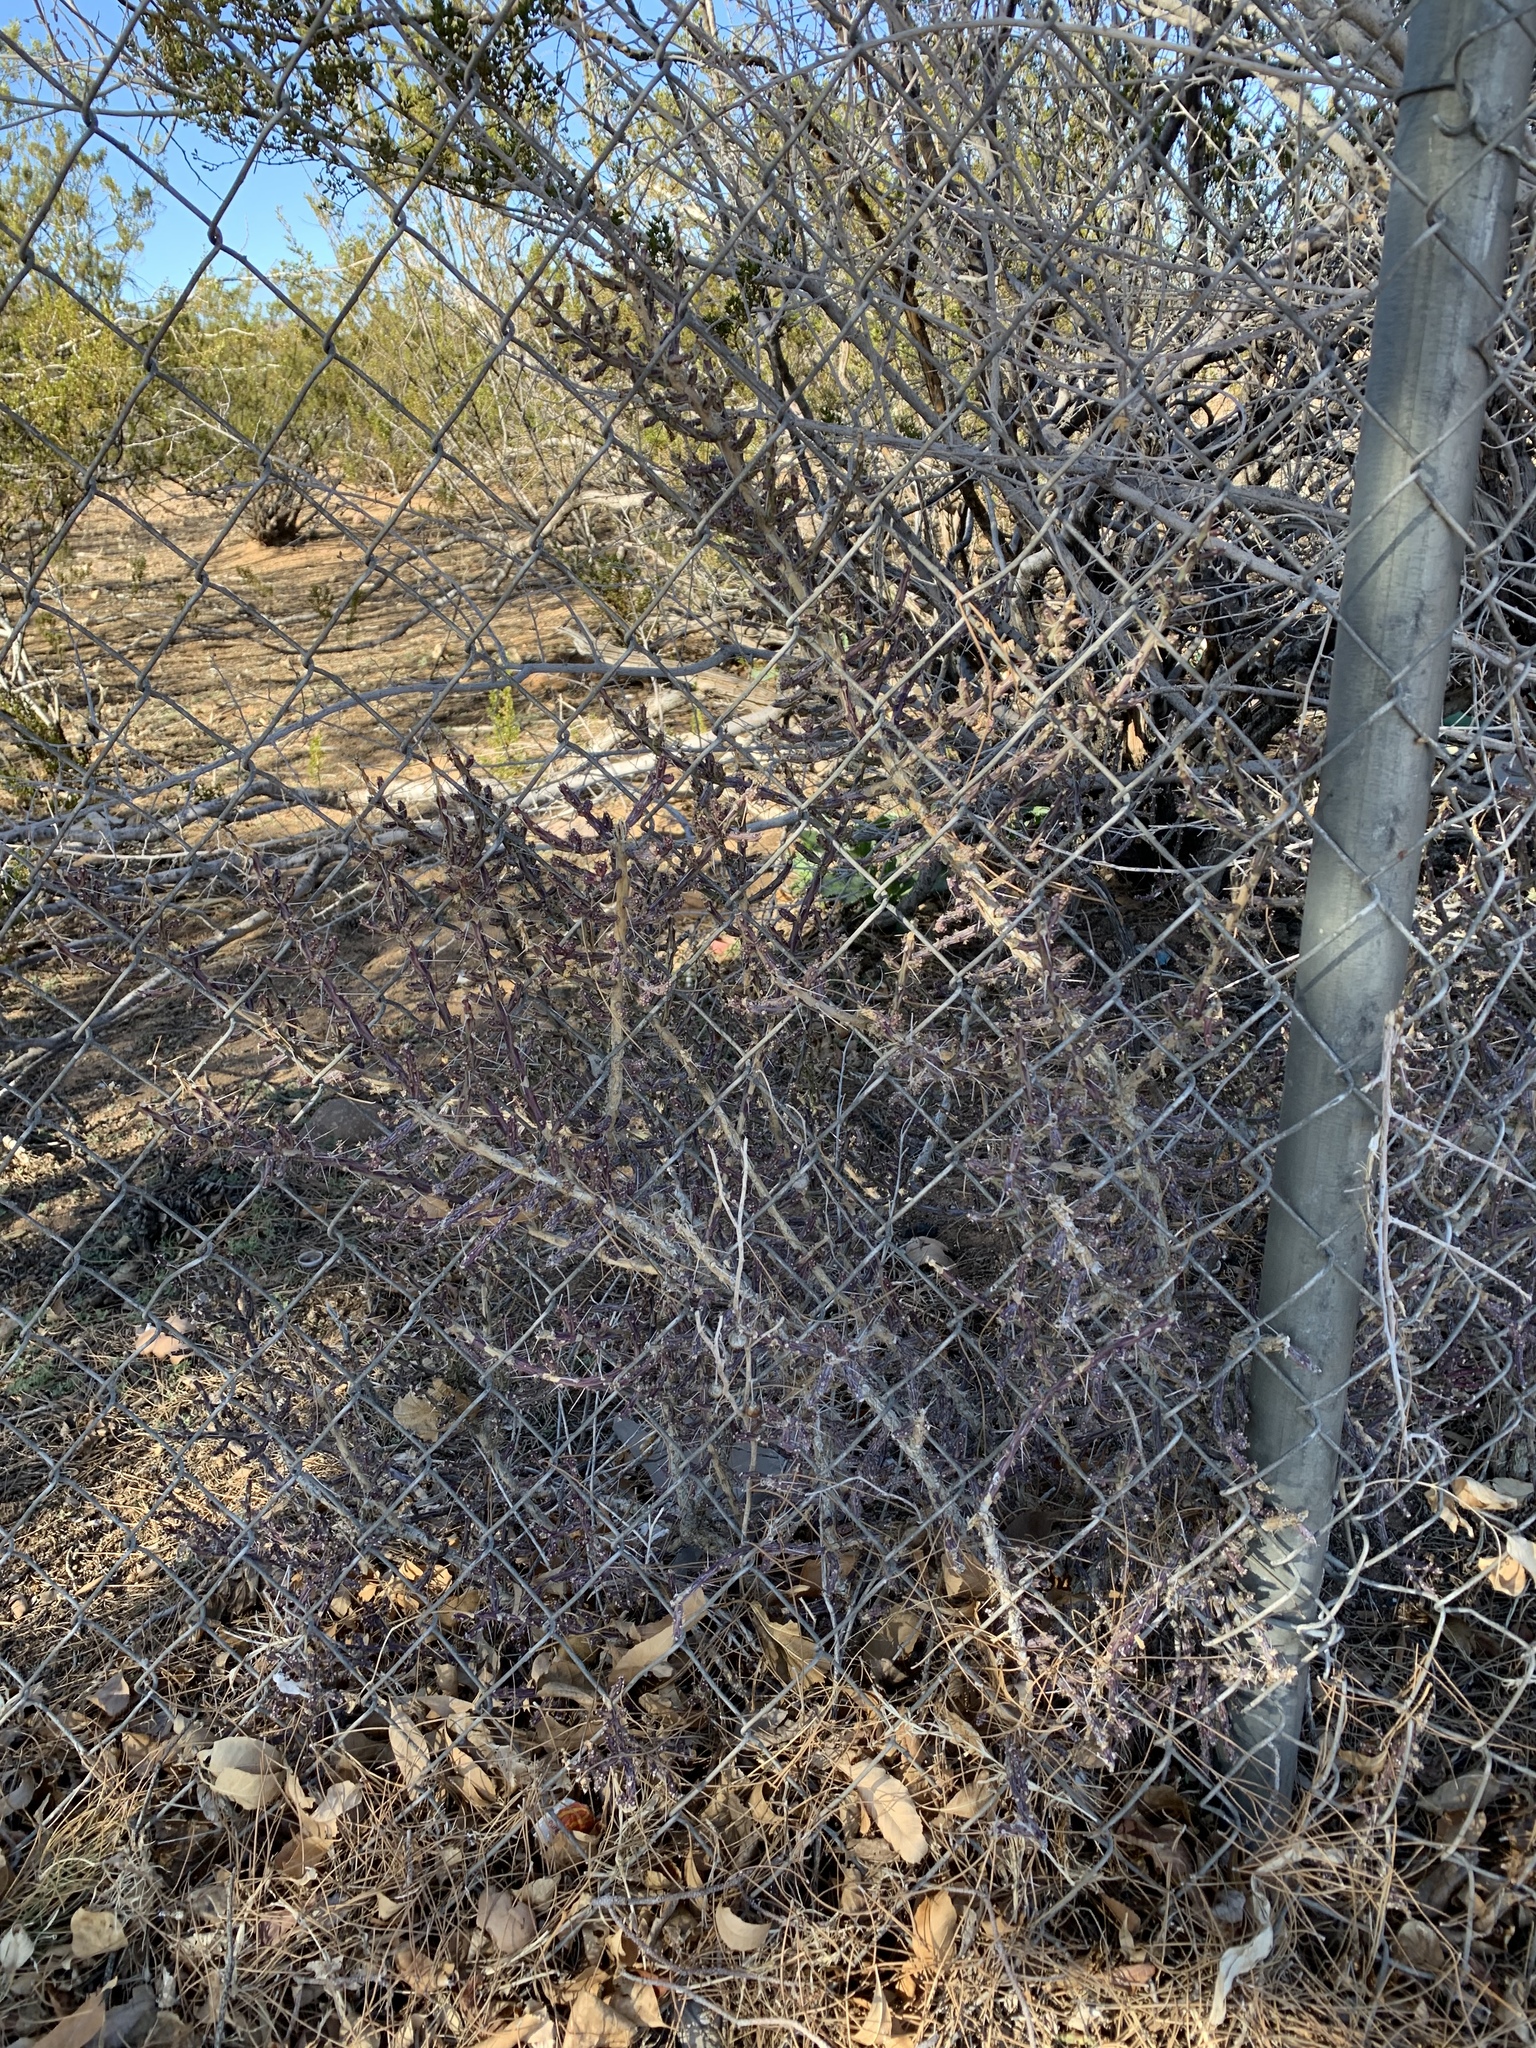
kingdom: Plantae
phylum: Tracheophyta
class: Magnoliopsida
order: Caryophyllales
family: Cactaceae
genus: Cylindropuntia
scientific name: Cylindropuntia leptocaulis
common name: Christmas cactus
